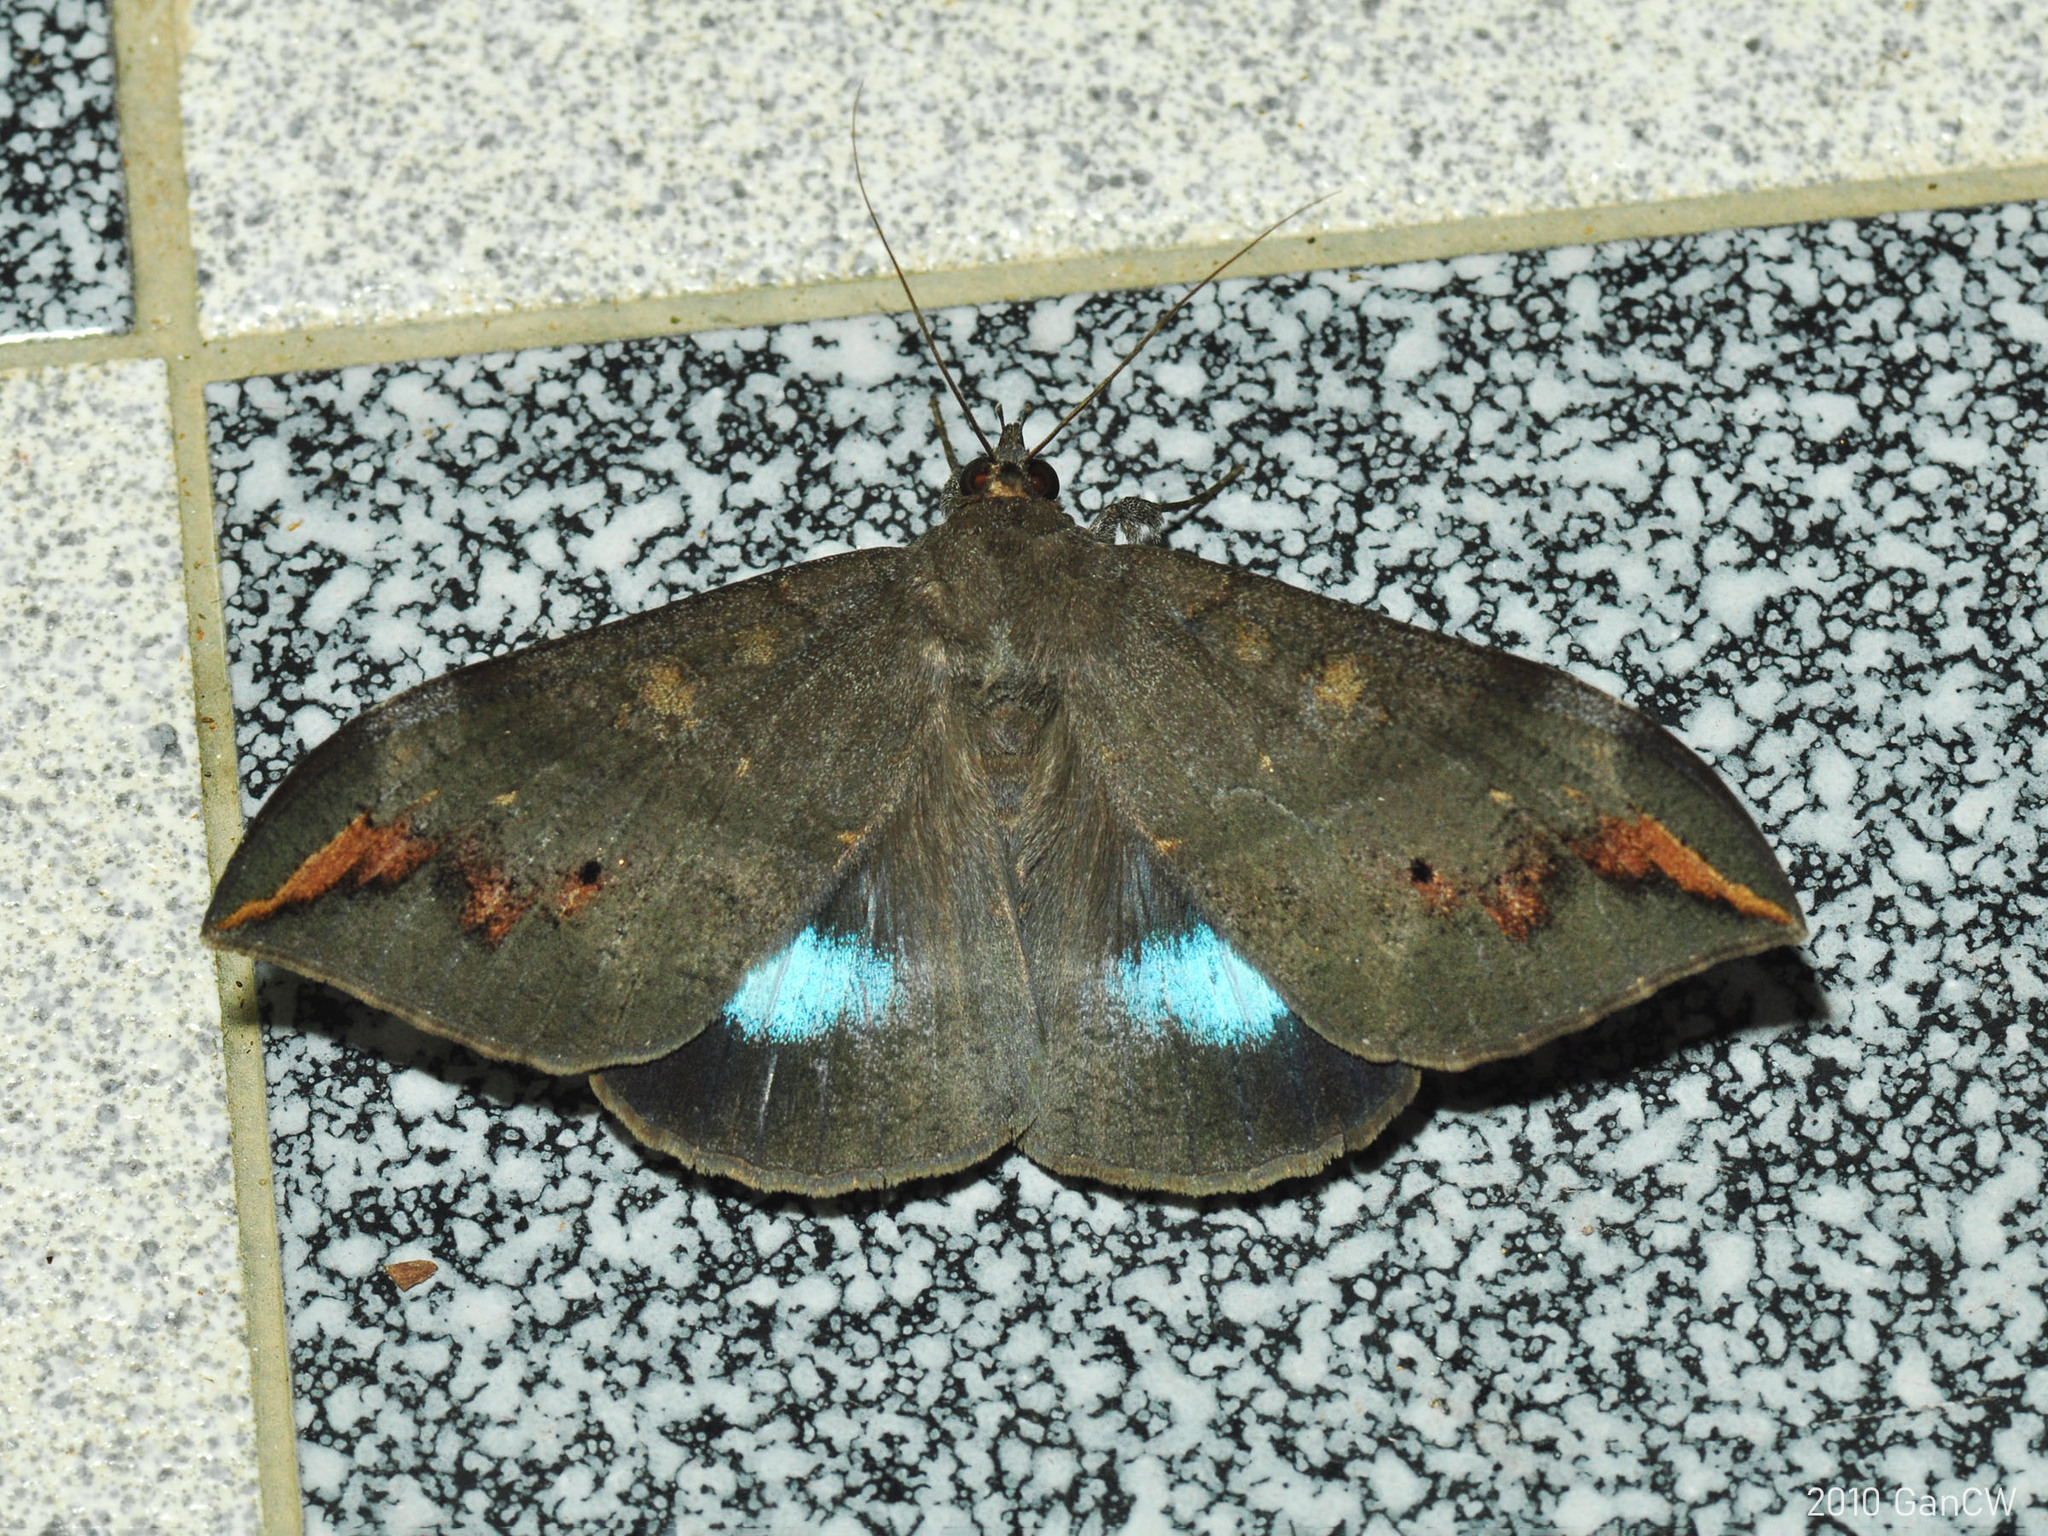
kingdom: Animalia
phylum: Arthropoda
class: Insecta
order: Lepidoptera
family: Erebidae
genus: Ischyja
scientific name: Ischyja ferrifracta
